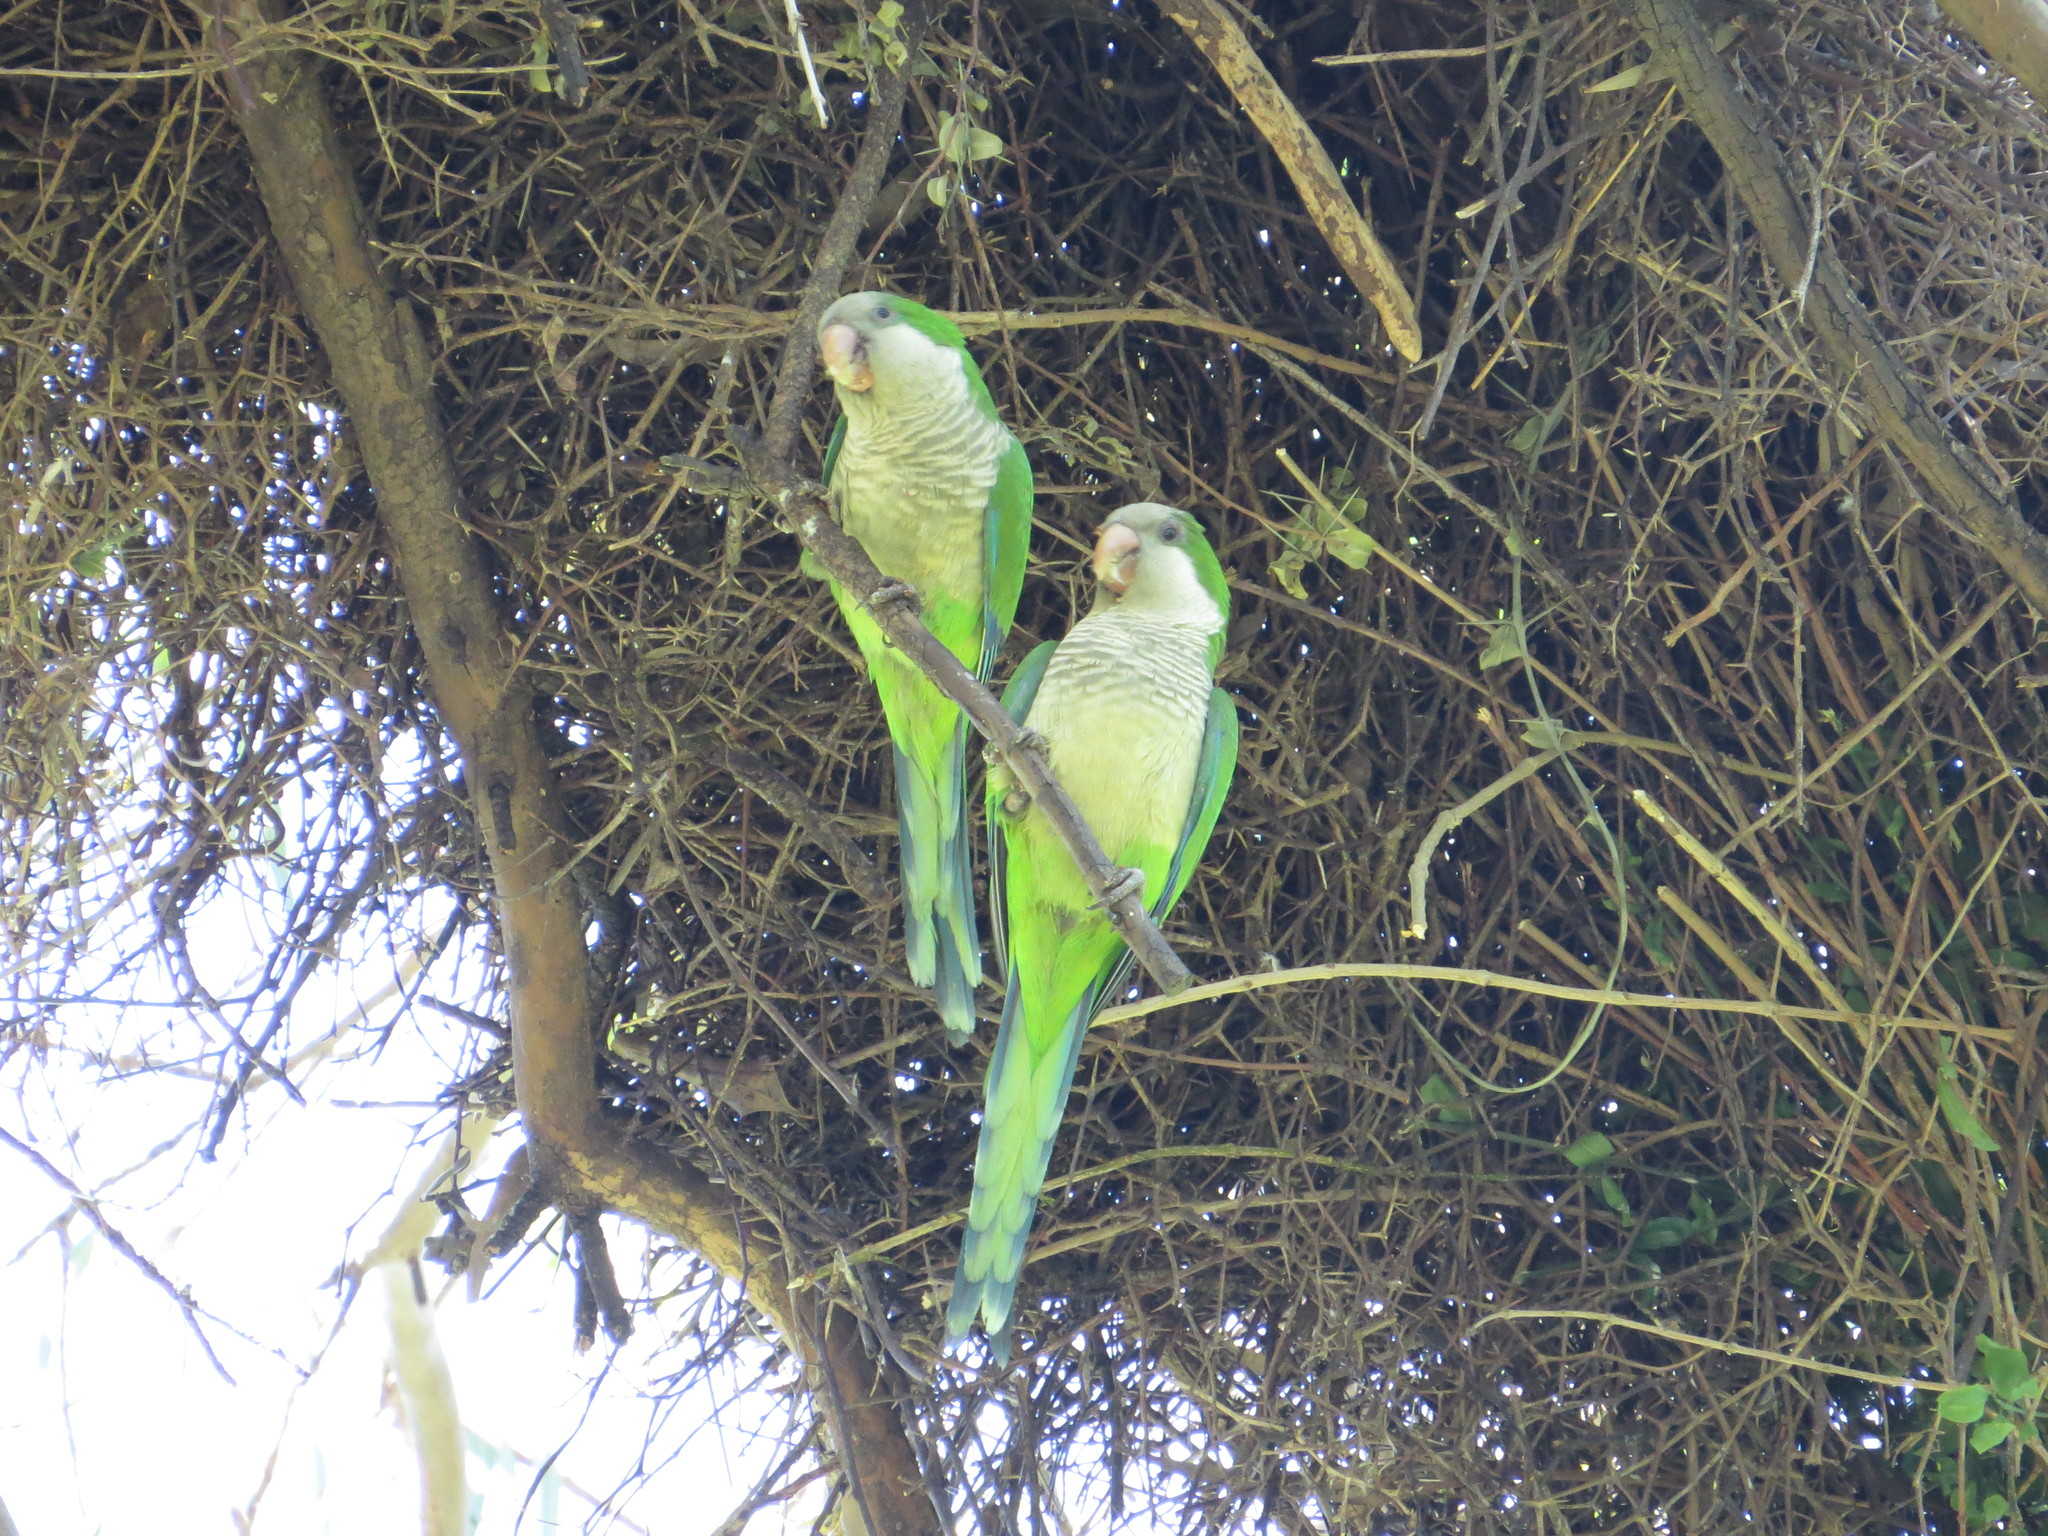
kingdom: Animalia
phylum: Chordata
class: Aves
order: Psittaciformes
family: Psittacidae
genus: Myiopsitta
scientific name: Myiopsitta monachus
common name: Monk parakeet
